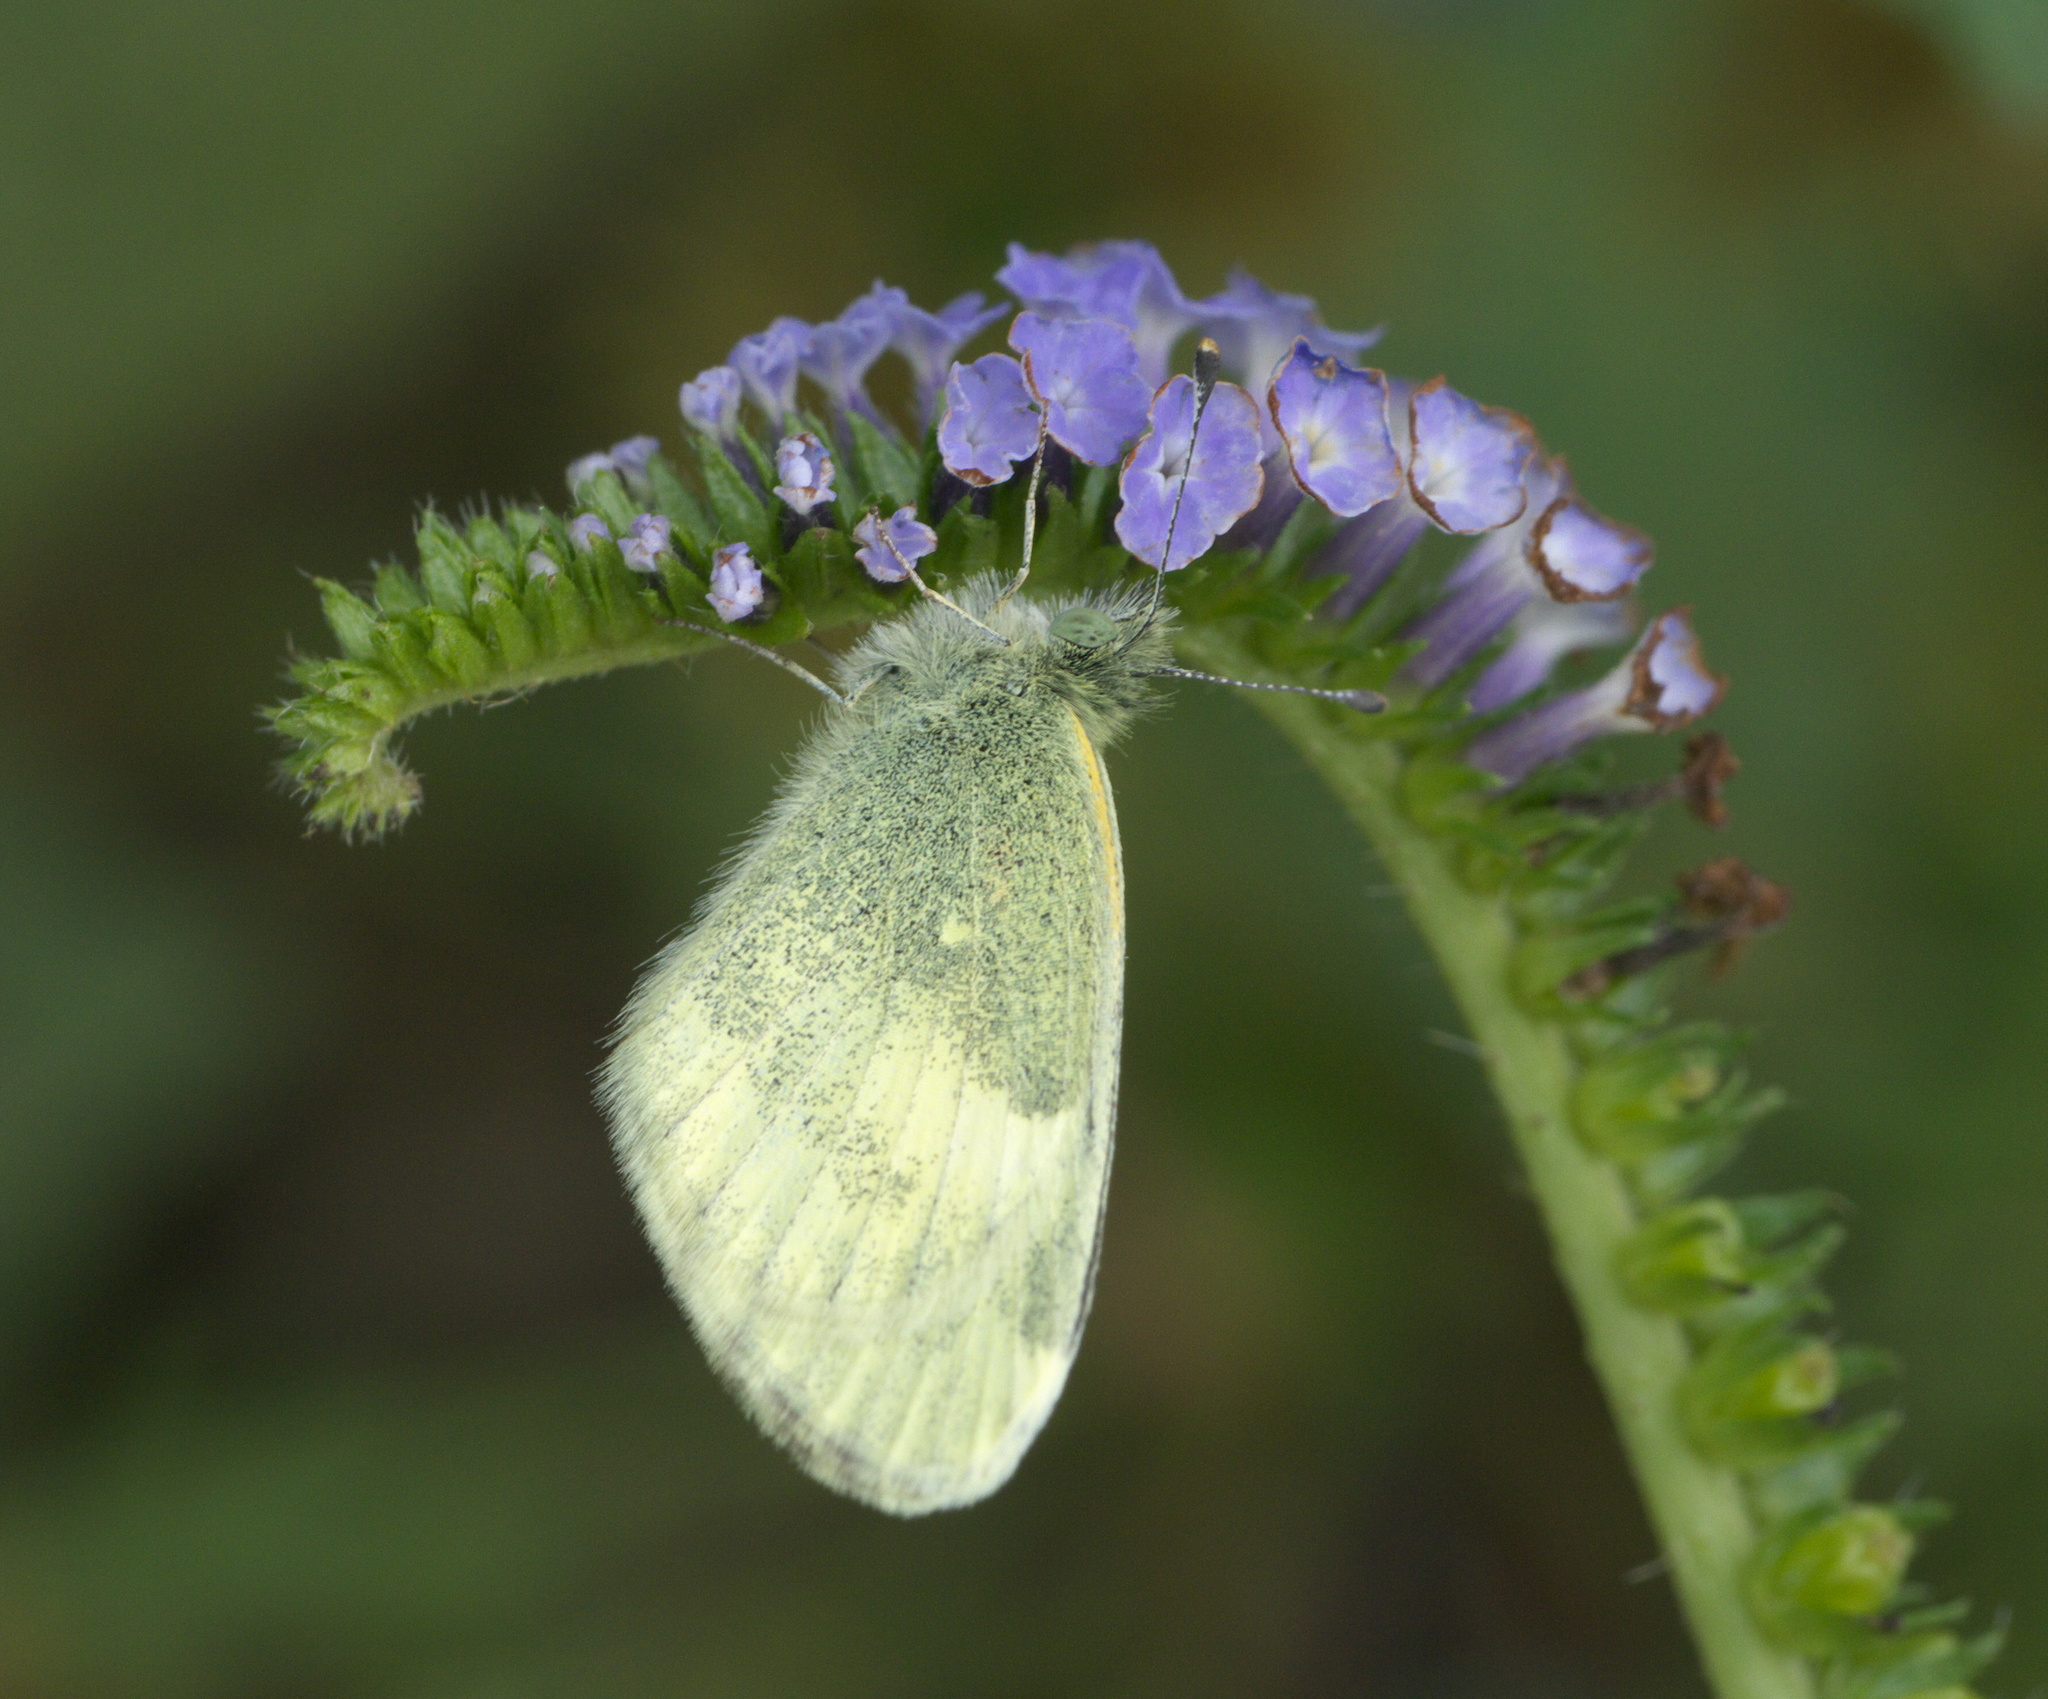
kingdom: Animalia
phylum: Arthropoda
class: Insecta
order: Lepidoptera
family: Pieridae
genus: Nathalis
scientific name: Nathalis iole
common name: Dainty sulphur
